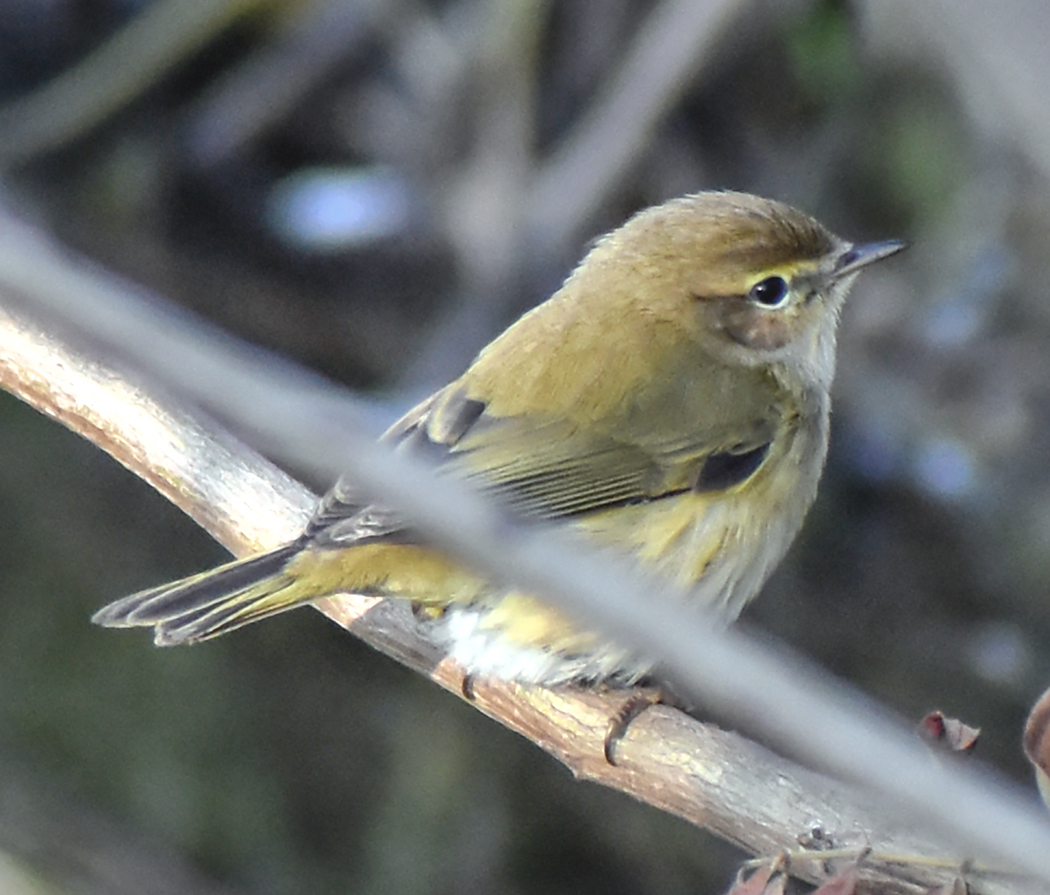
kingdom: Animalia
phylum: Chordata
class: Aves
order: Passeriformes
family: Phylloscopidae
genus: Phylloscopus
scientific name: Phylloscopus collybita
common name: Common chiffchaff
